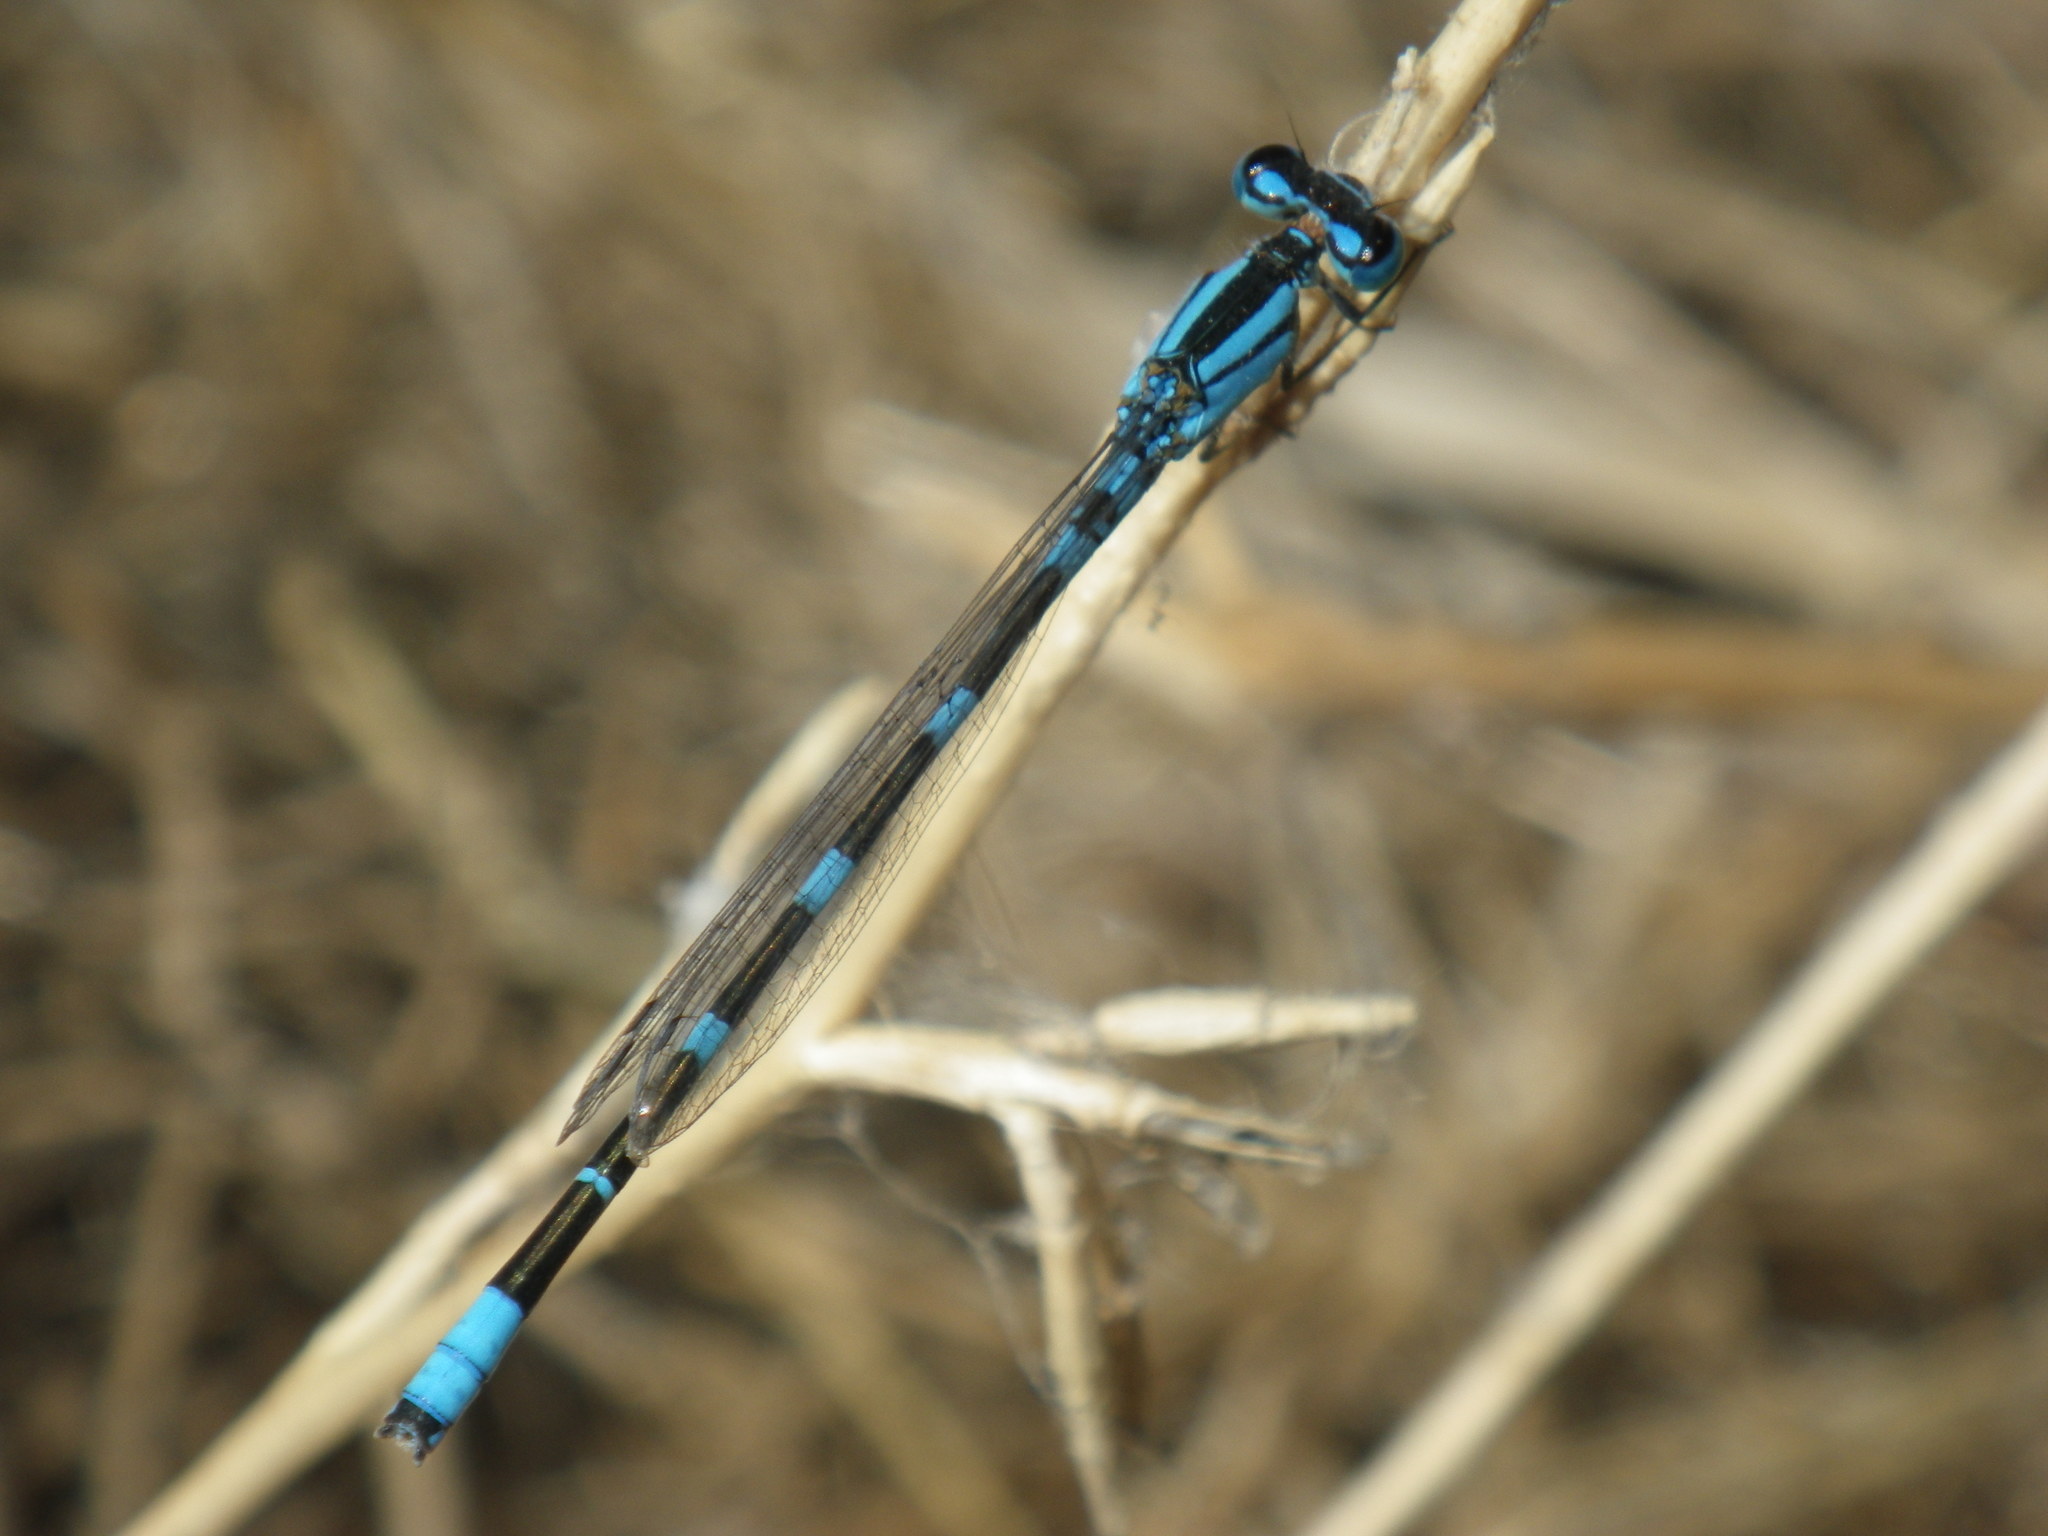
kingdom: Animalia
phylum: Arthropoda
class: Insecta
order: Odonata
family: Coenagrionidae
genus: Enallagma
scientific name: Enallagma carunculatum
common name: Tule bluet
